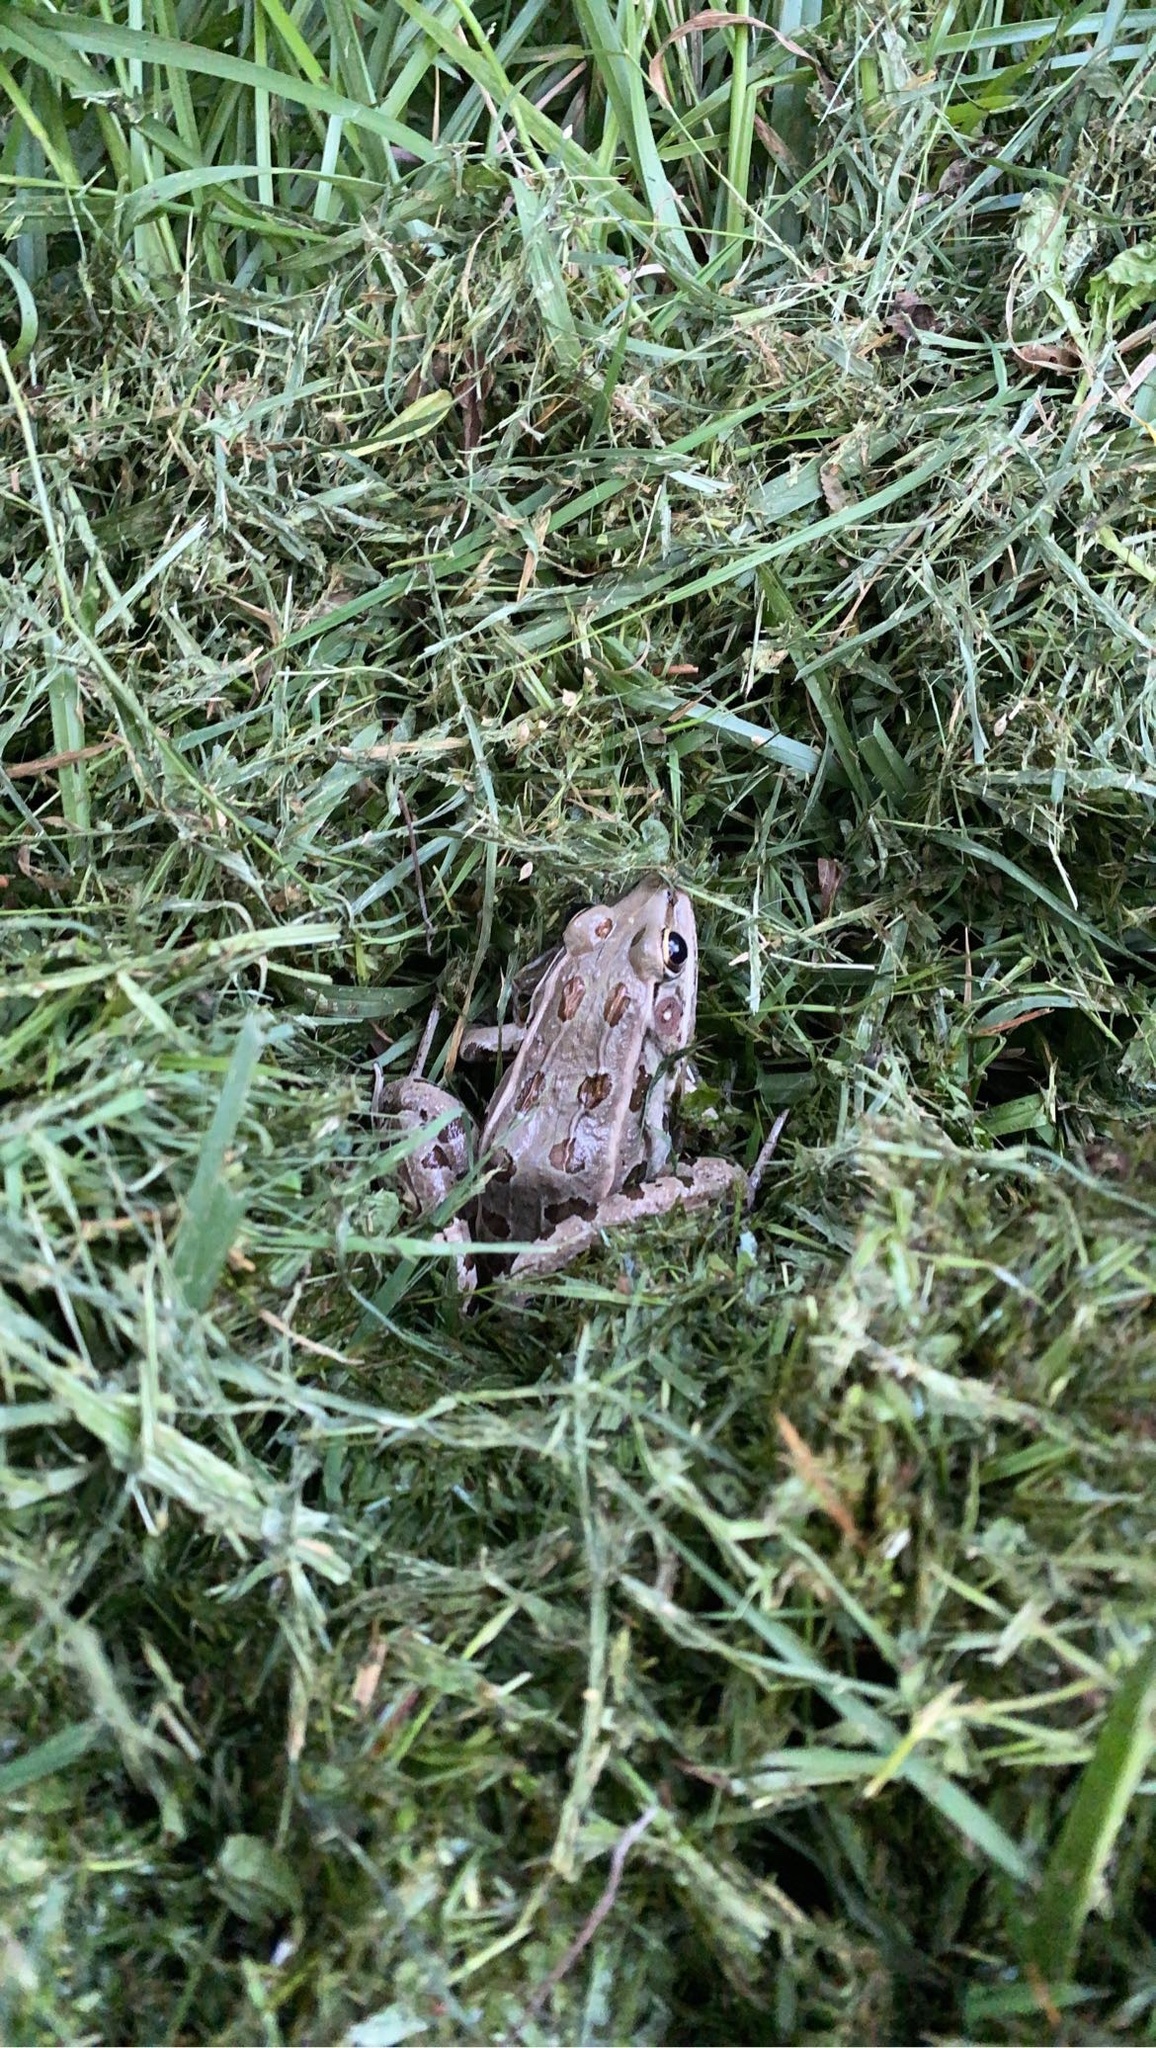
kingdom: Animalia
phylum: Chordata
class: Amphibia
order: Anura
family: Ranidae
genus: Lithobates
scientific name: Lithobates sphenocephalus
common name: Southern leopard frog
